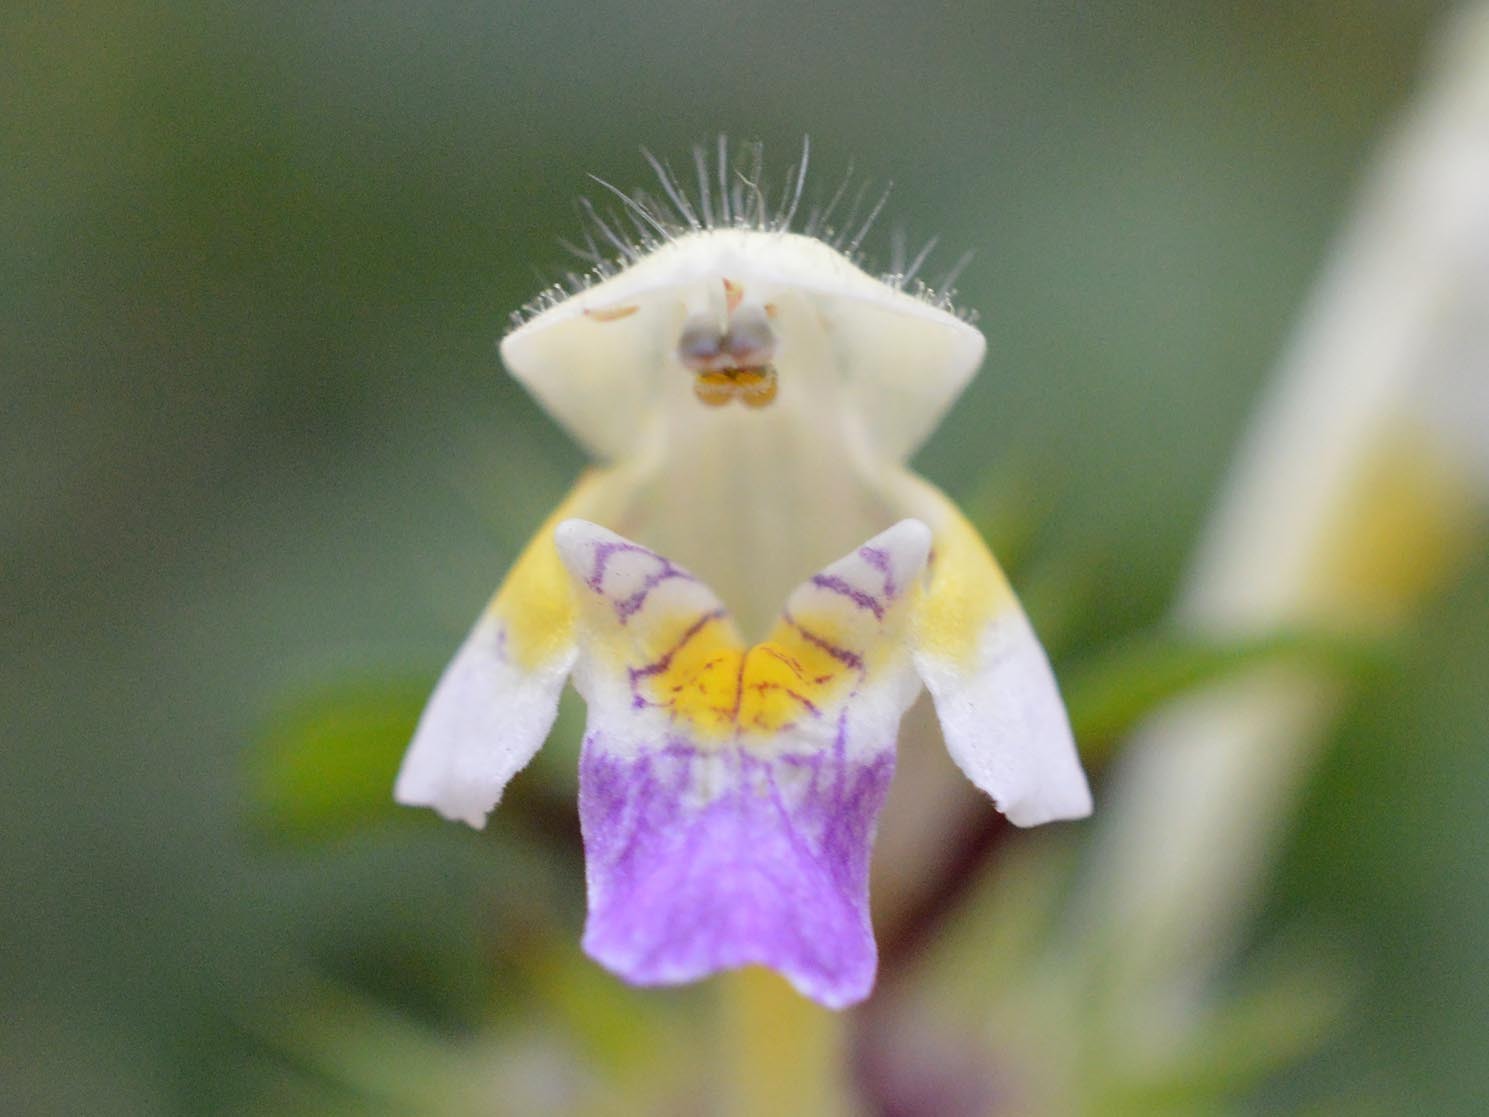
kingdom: Plantae
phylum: Tracheophyta
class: Magnoliopsida
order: Lamiales
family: Lamiaceae
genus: Galeopsis
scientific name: Galeopsis speciosa
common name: Large-flowered hemp-nettle
